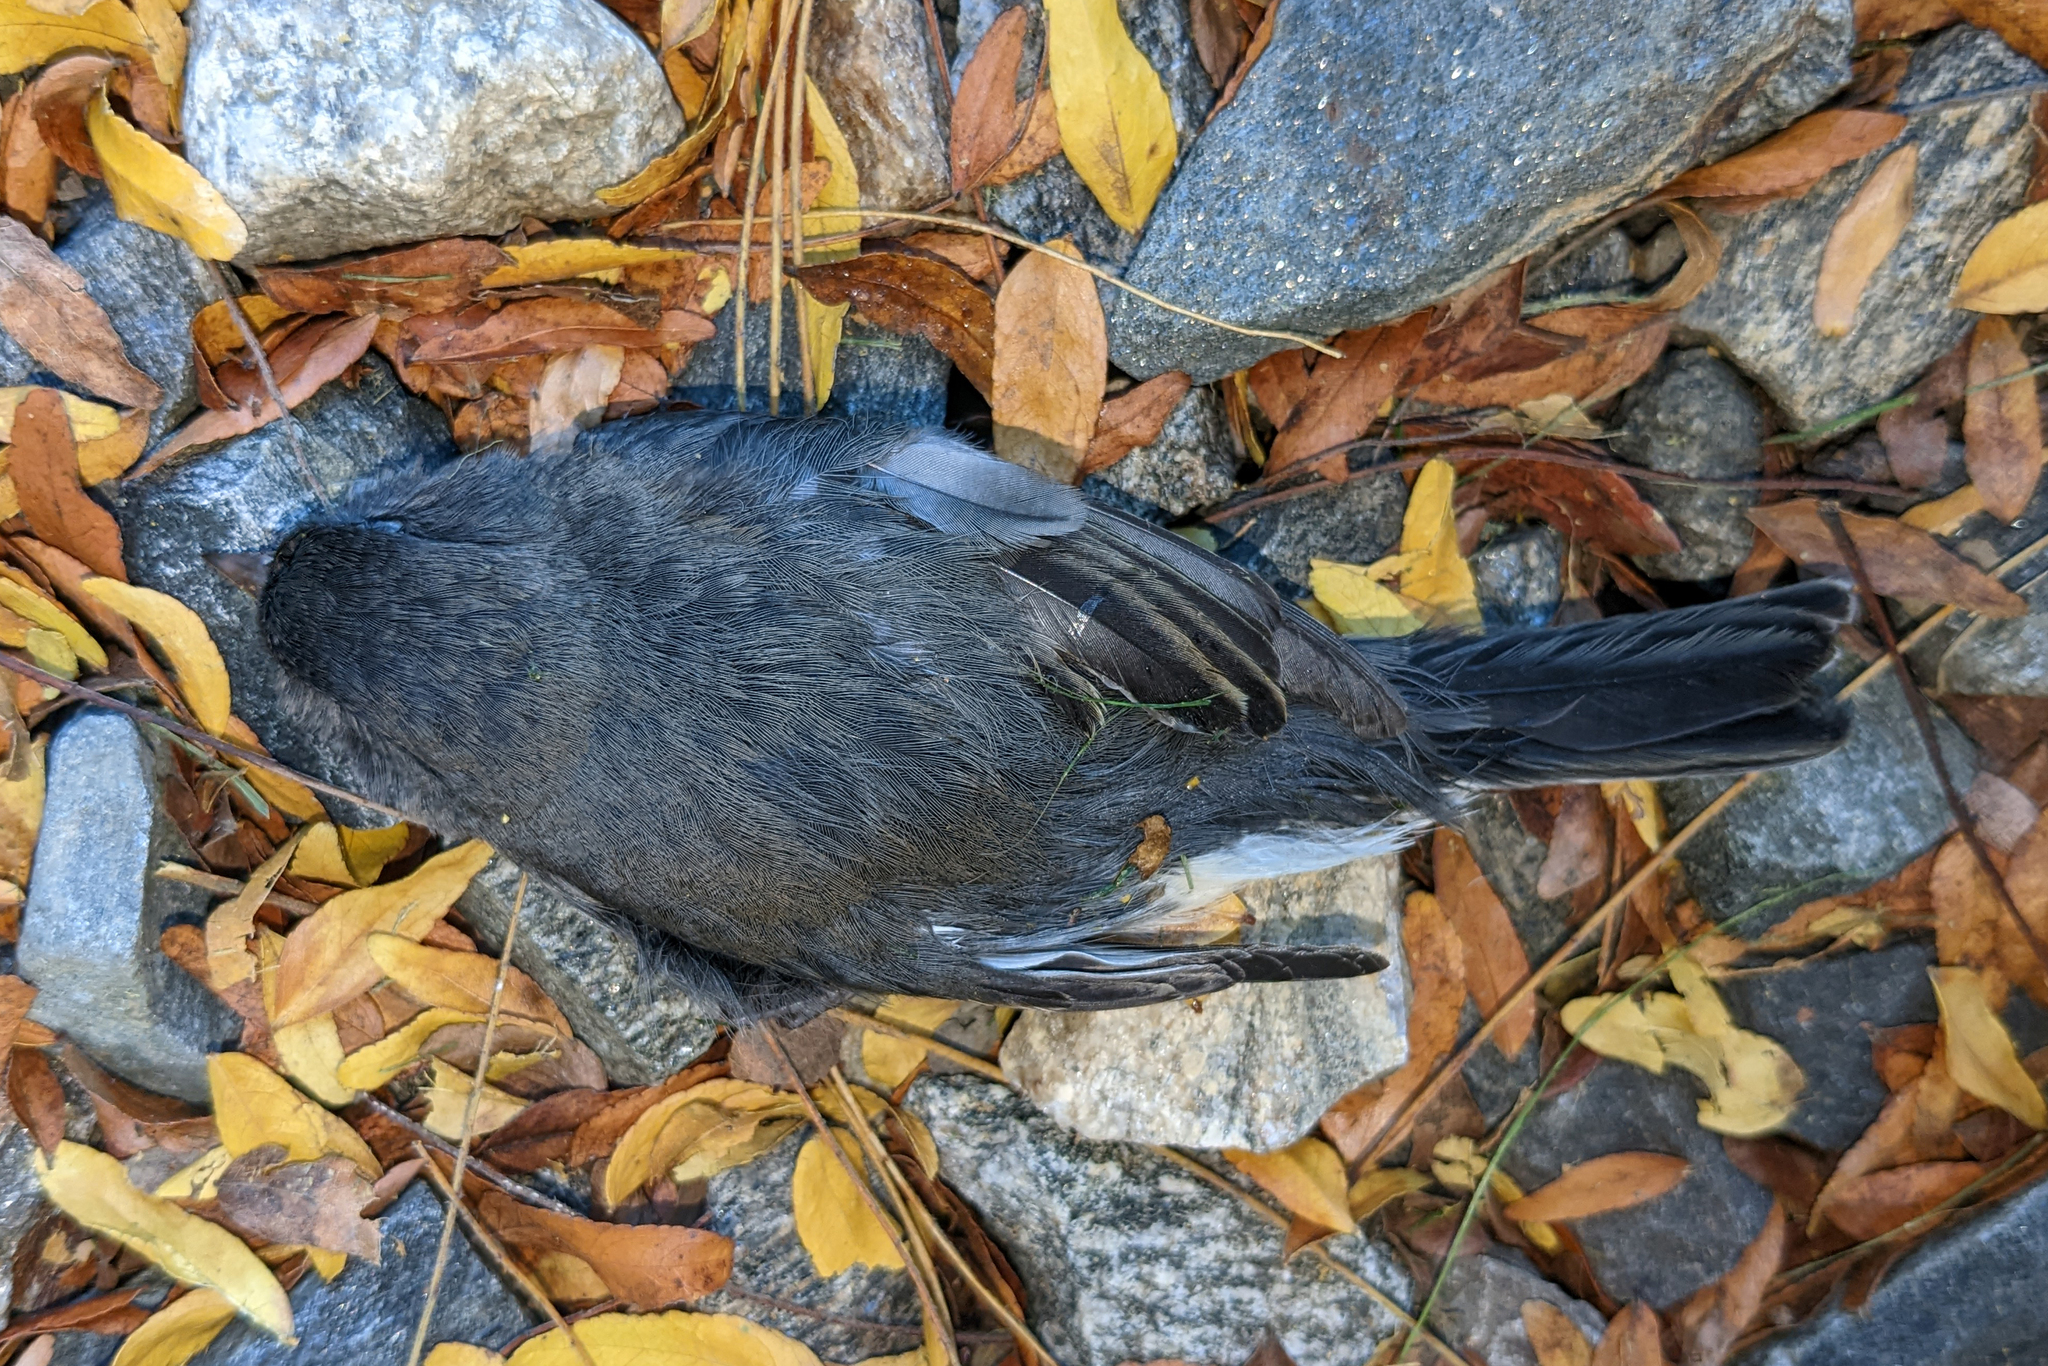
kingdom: Animalia
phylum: Chordata
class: Aves
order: Passeriformes
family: Passerellidae
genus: Junco
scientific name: Junco hyemalis
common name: Dark-eyed junco
